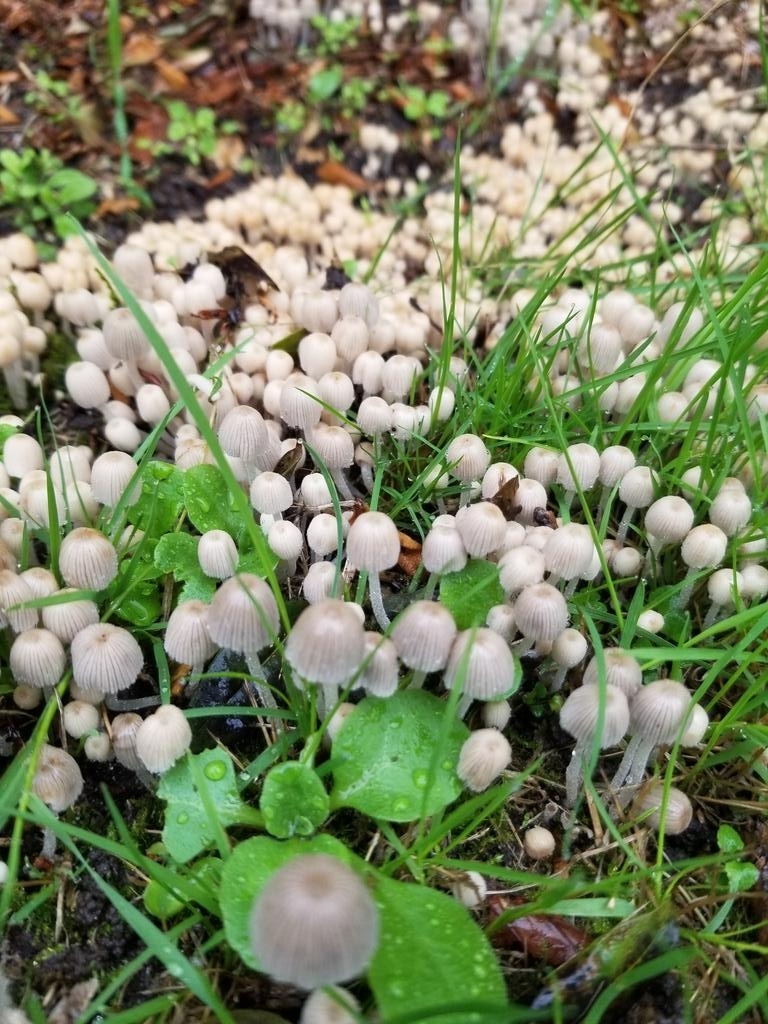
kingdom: Fungi
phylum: Basidiomycota
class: Agaricomycetes
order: Agaricales
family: Psathyrellaceae
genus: Coprinellus
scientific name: Coprinellus disseminatus
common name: Fairies' bonnets
